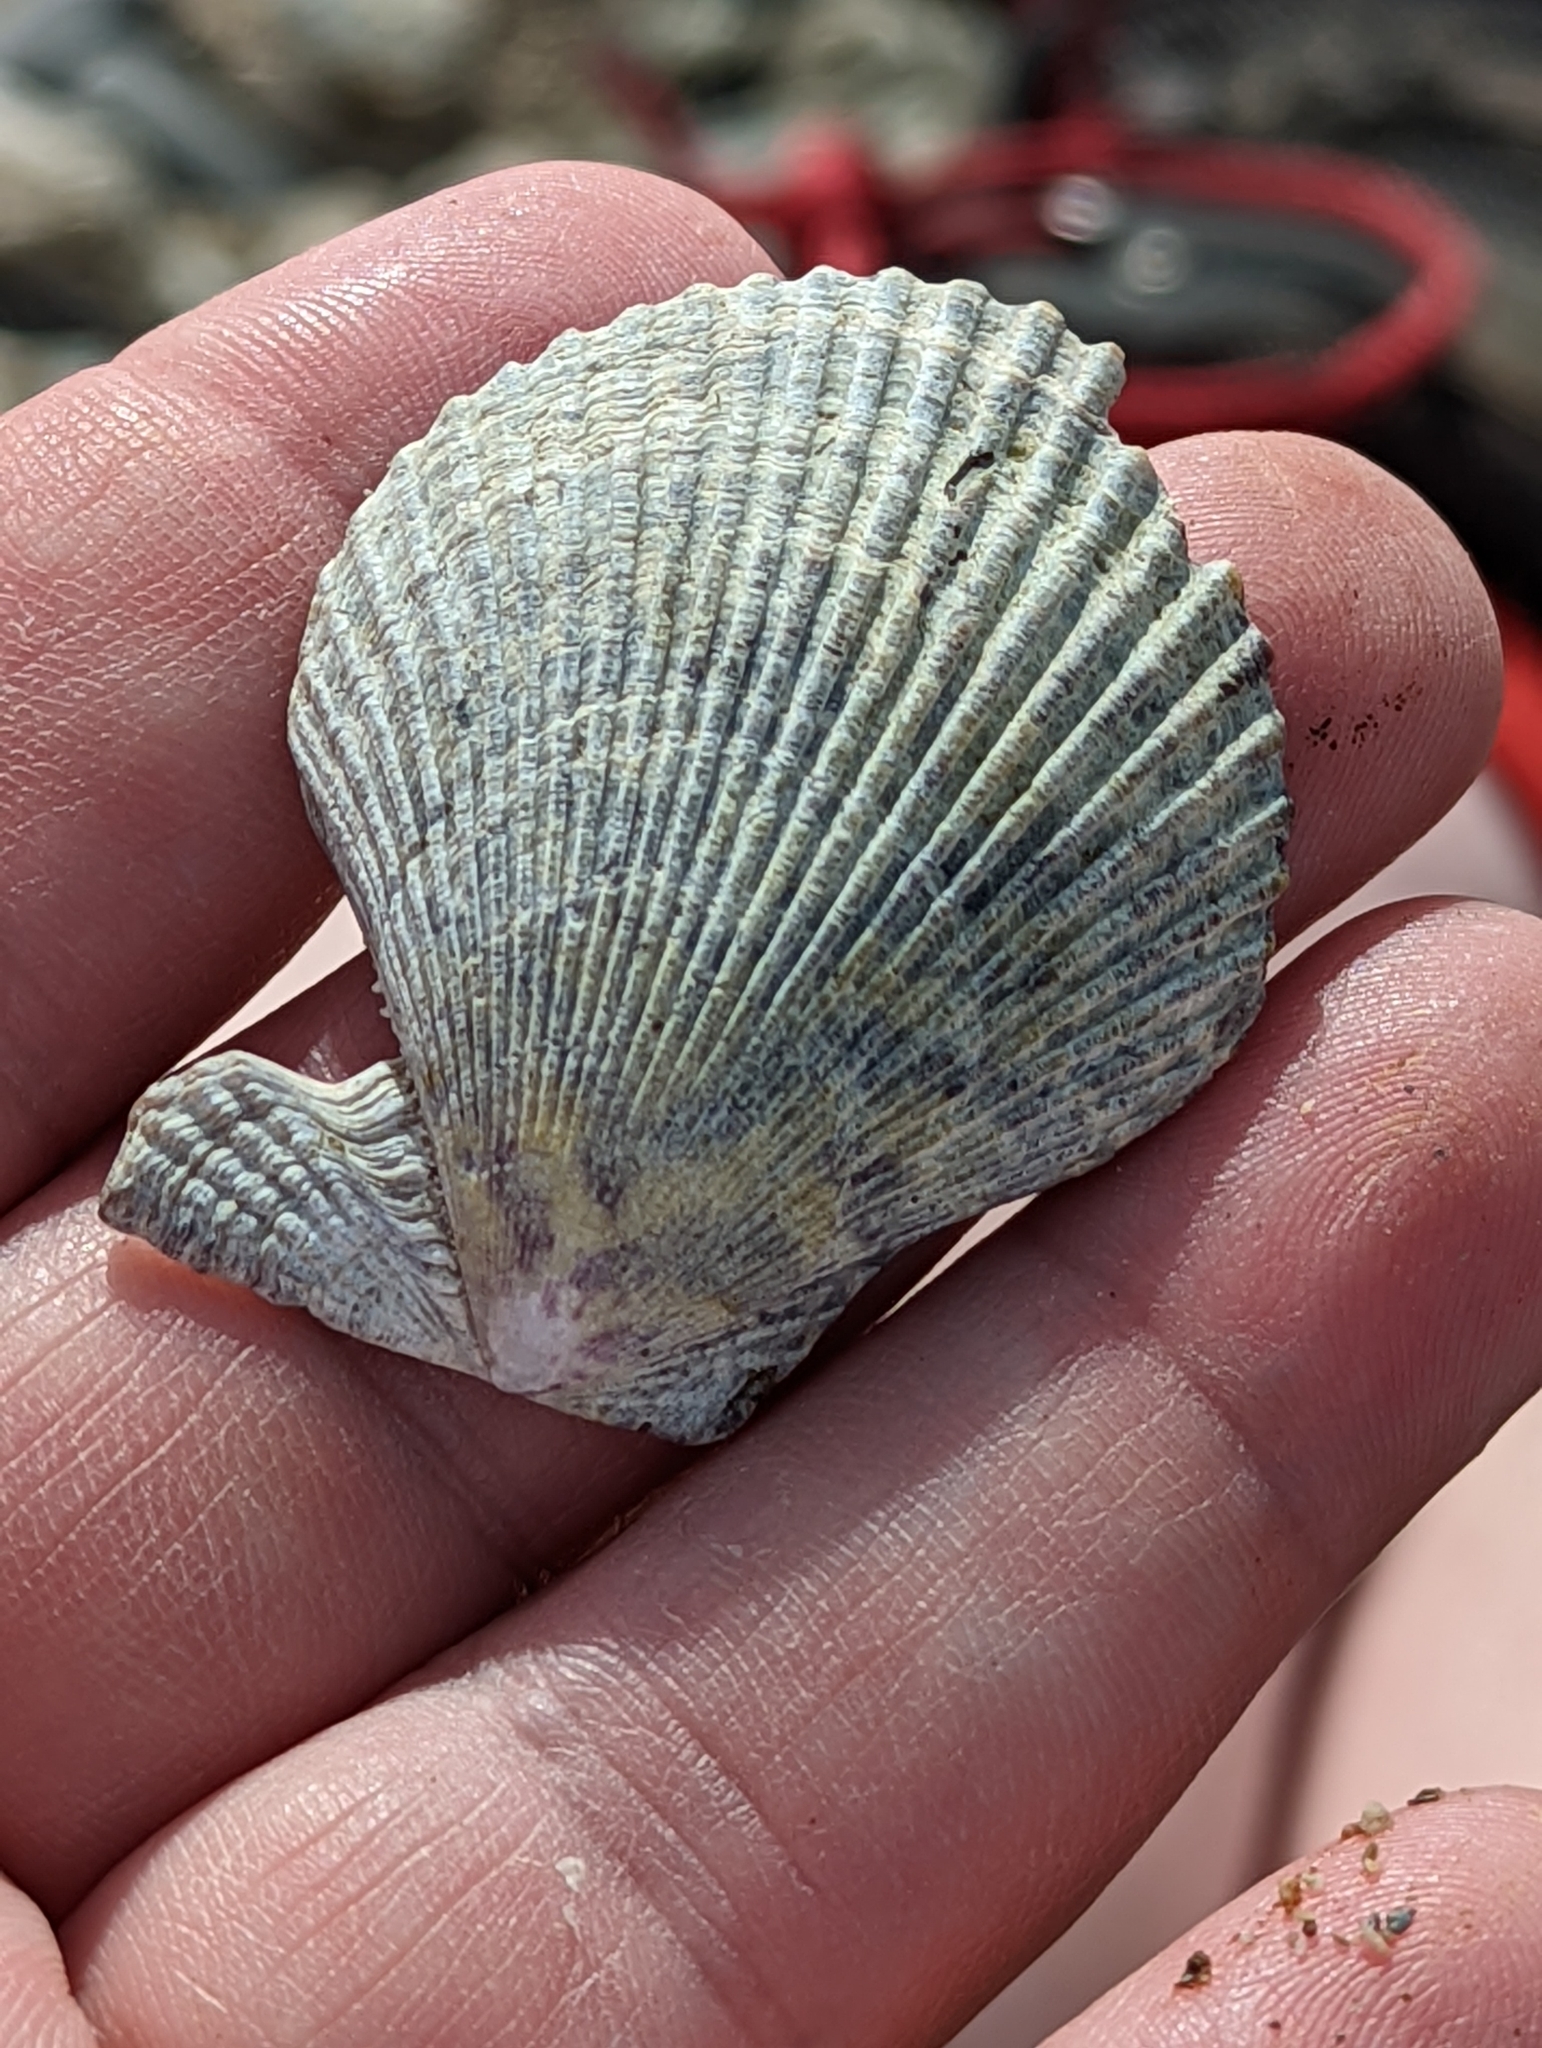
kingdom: Animalia
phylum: Mollusca
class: Bivalvia
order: Pectinida
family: Pectinidae
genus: Aequipecten
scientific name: Aequipecten opercularis
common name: Queen scallop
